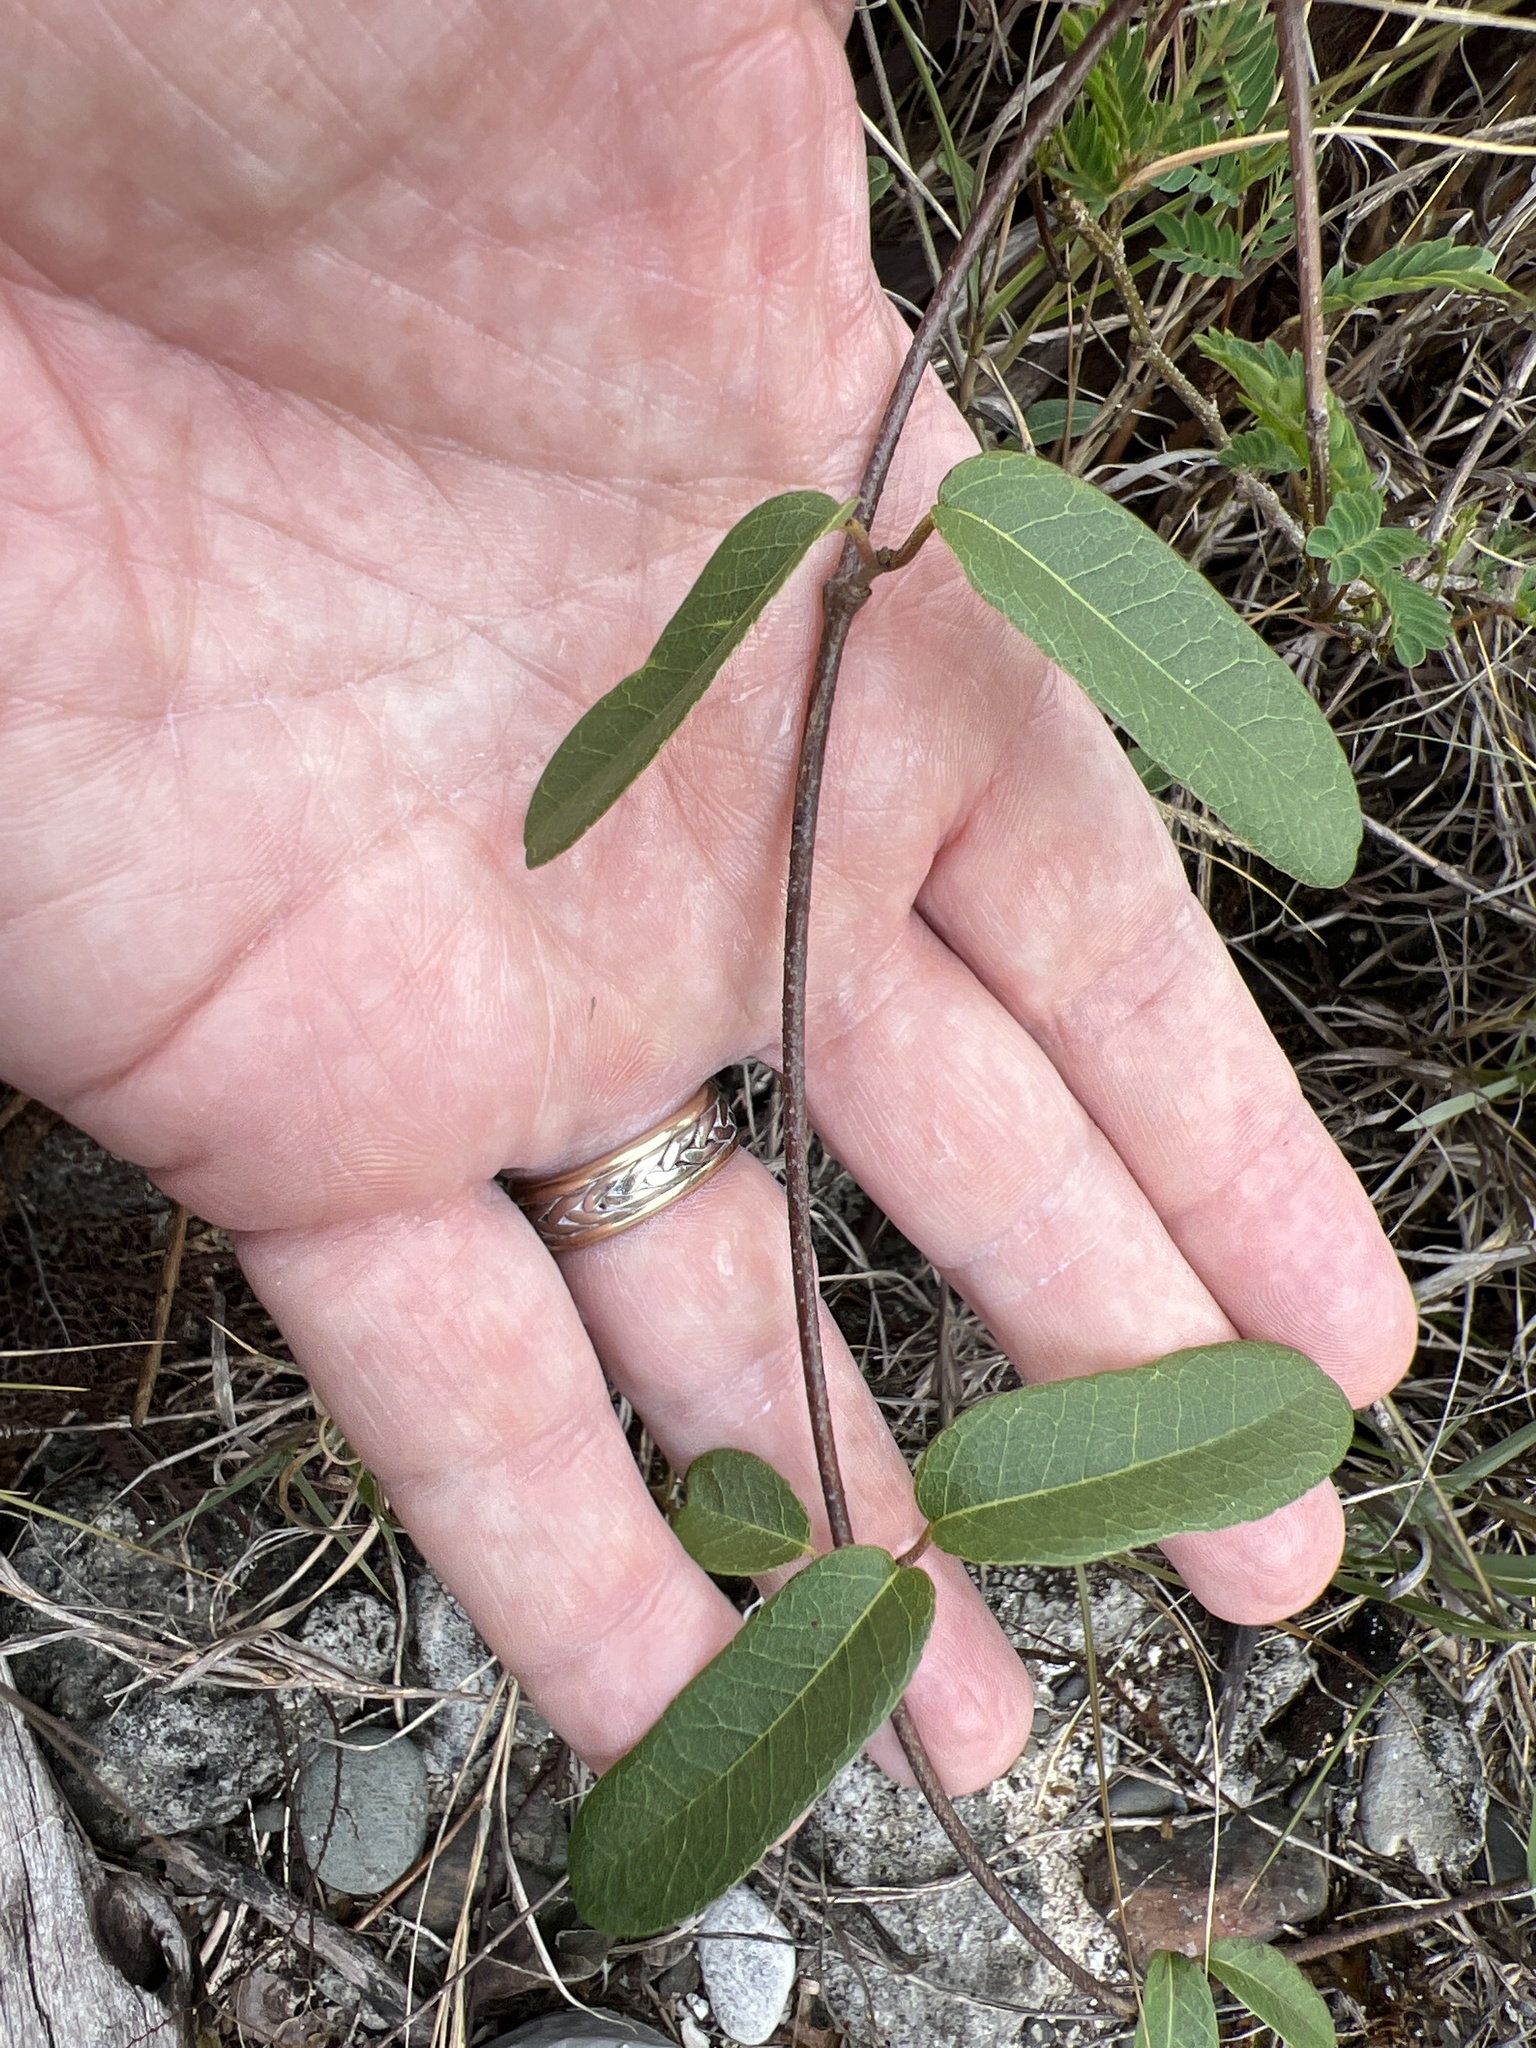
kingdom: Plantae
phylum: Tracheophyta
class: Magnoliopsida
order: Malpighiales
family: Malpighiaceae
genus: Stigmaphyllon
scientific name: Stigmaphyllon emarginatum
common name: Monarch amazonvine
